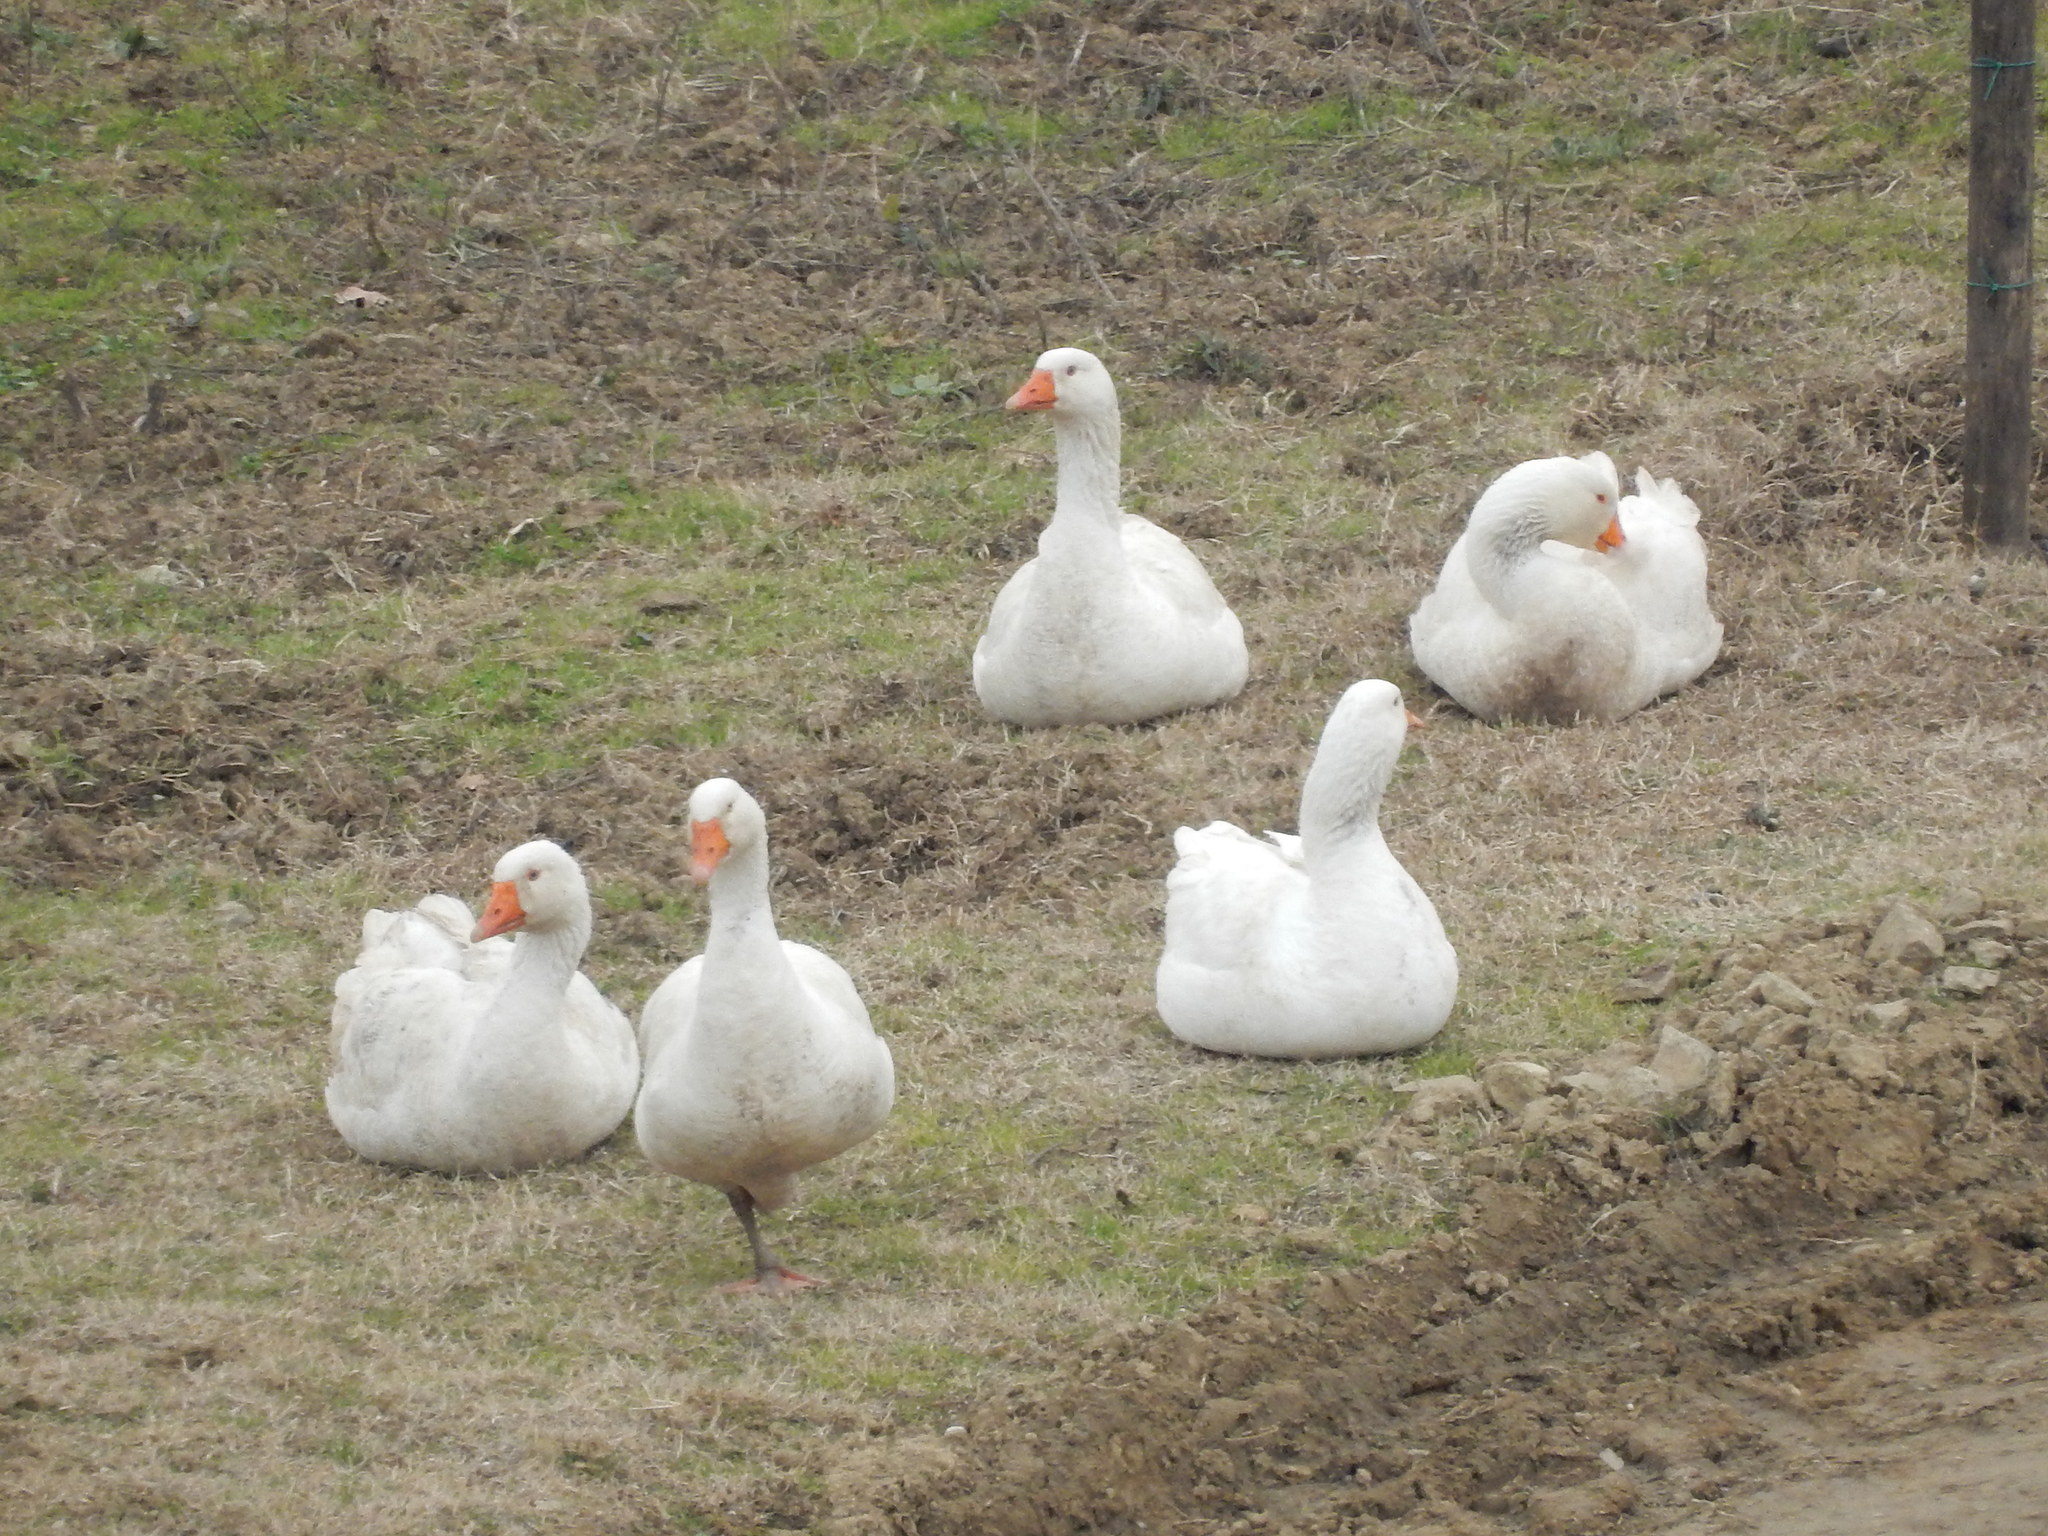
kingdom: Animalia
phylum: Chordata
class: Aves
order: Anseriformes
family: Anatidae
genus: Anser
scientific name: Anser anser
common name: Greylag goose
